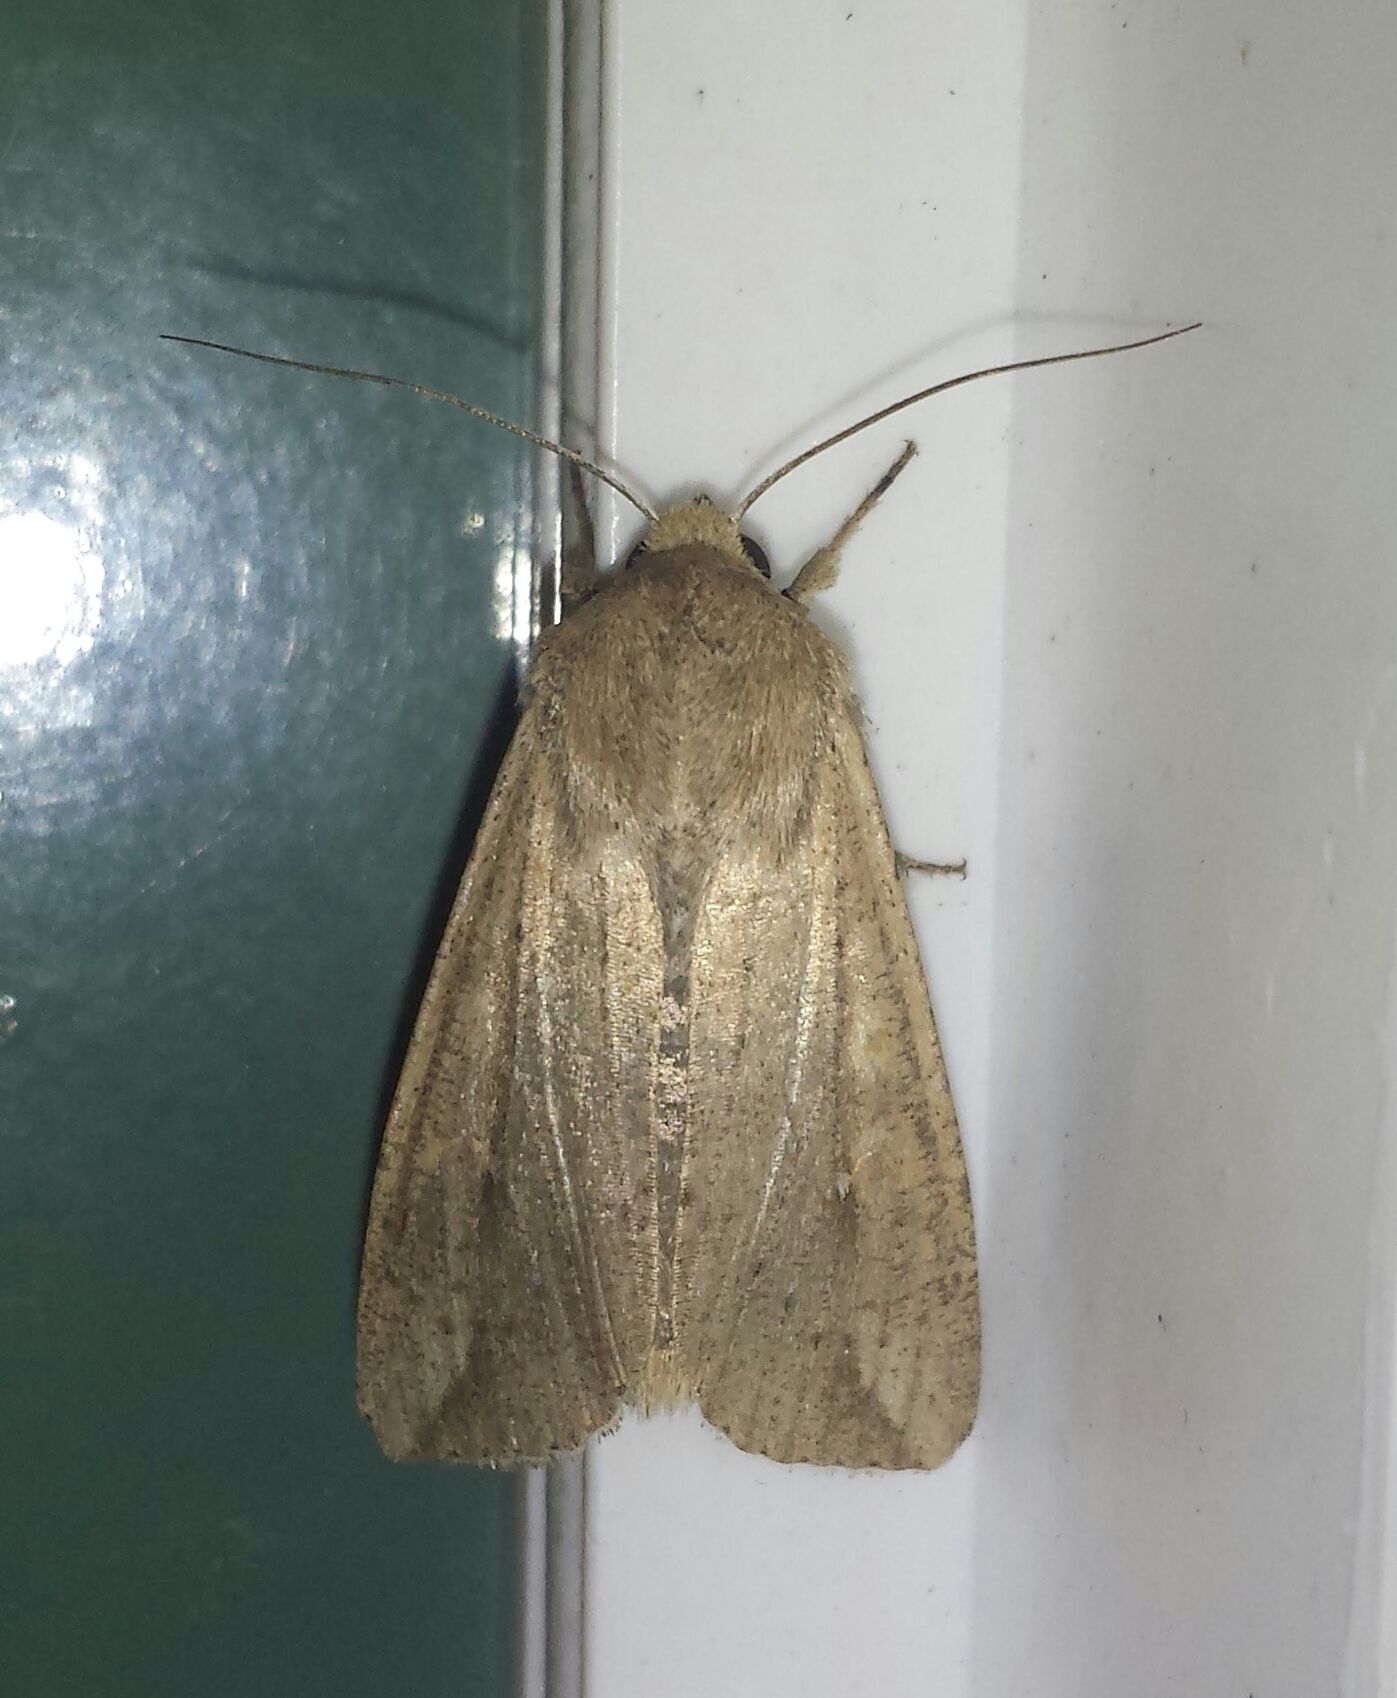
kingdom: Animalia
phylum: Arthropoda
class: Insecta
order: Lepidoptera
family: Noctuidae
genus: Mythimna
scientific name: Mythimna unipuncta
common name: White-speck
